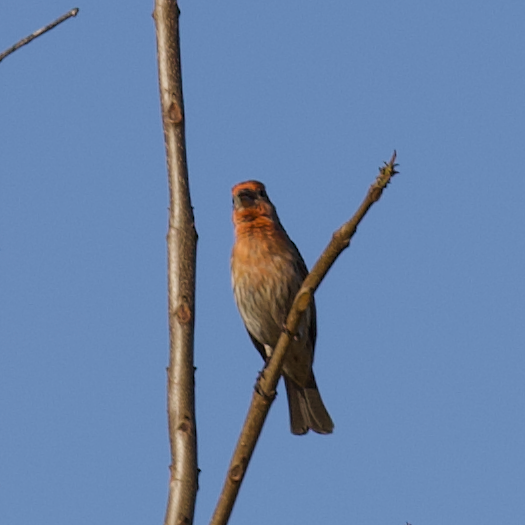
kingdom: Animalia
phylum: Chordata
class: Aves
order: Passeriformes
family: Fringillidae
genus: Haemorhous
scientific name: Haemorhous mexicanus
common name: House finch
